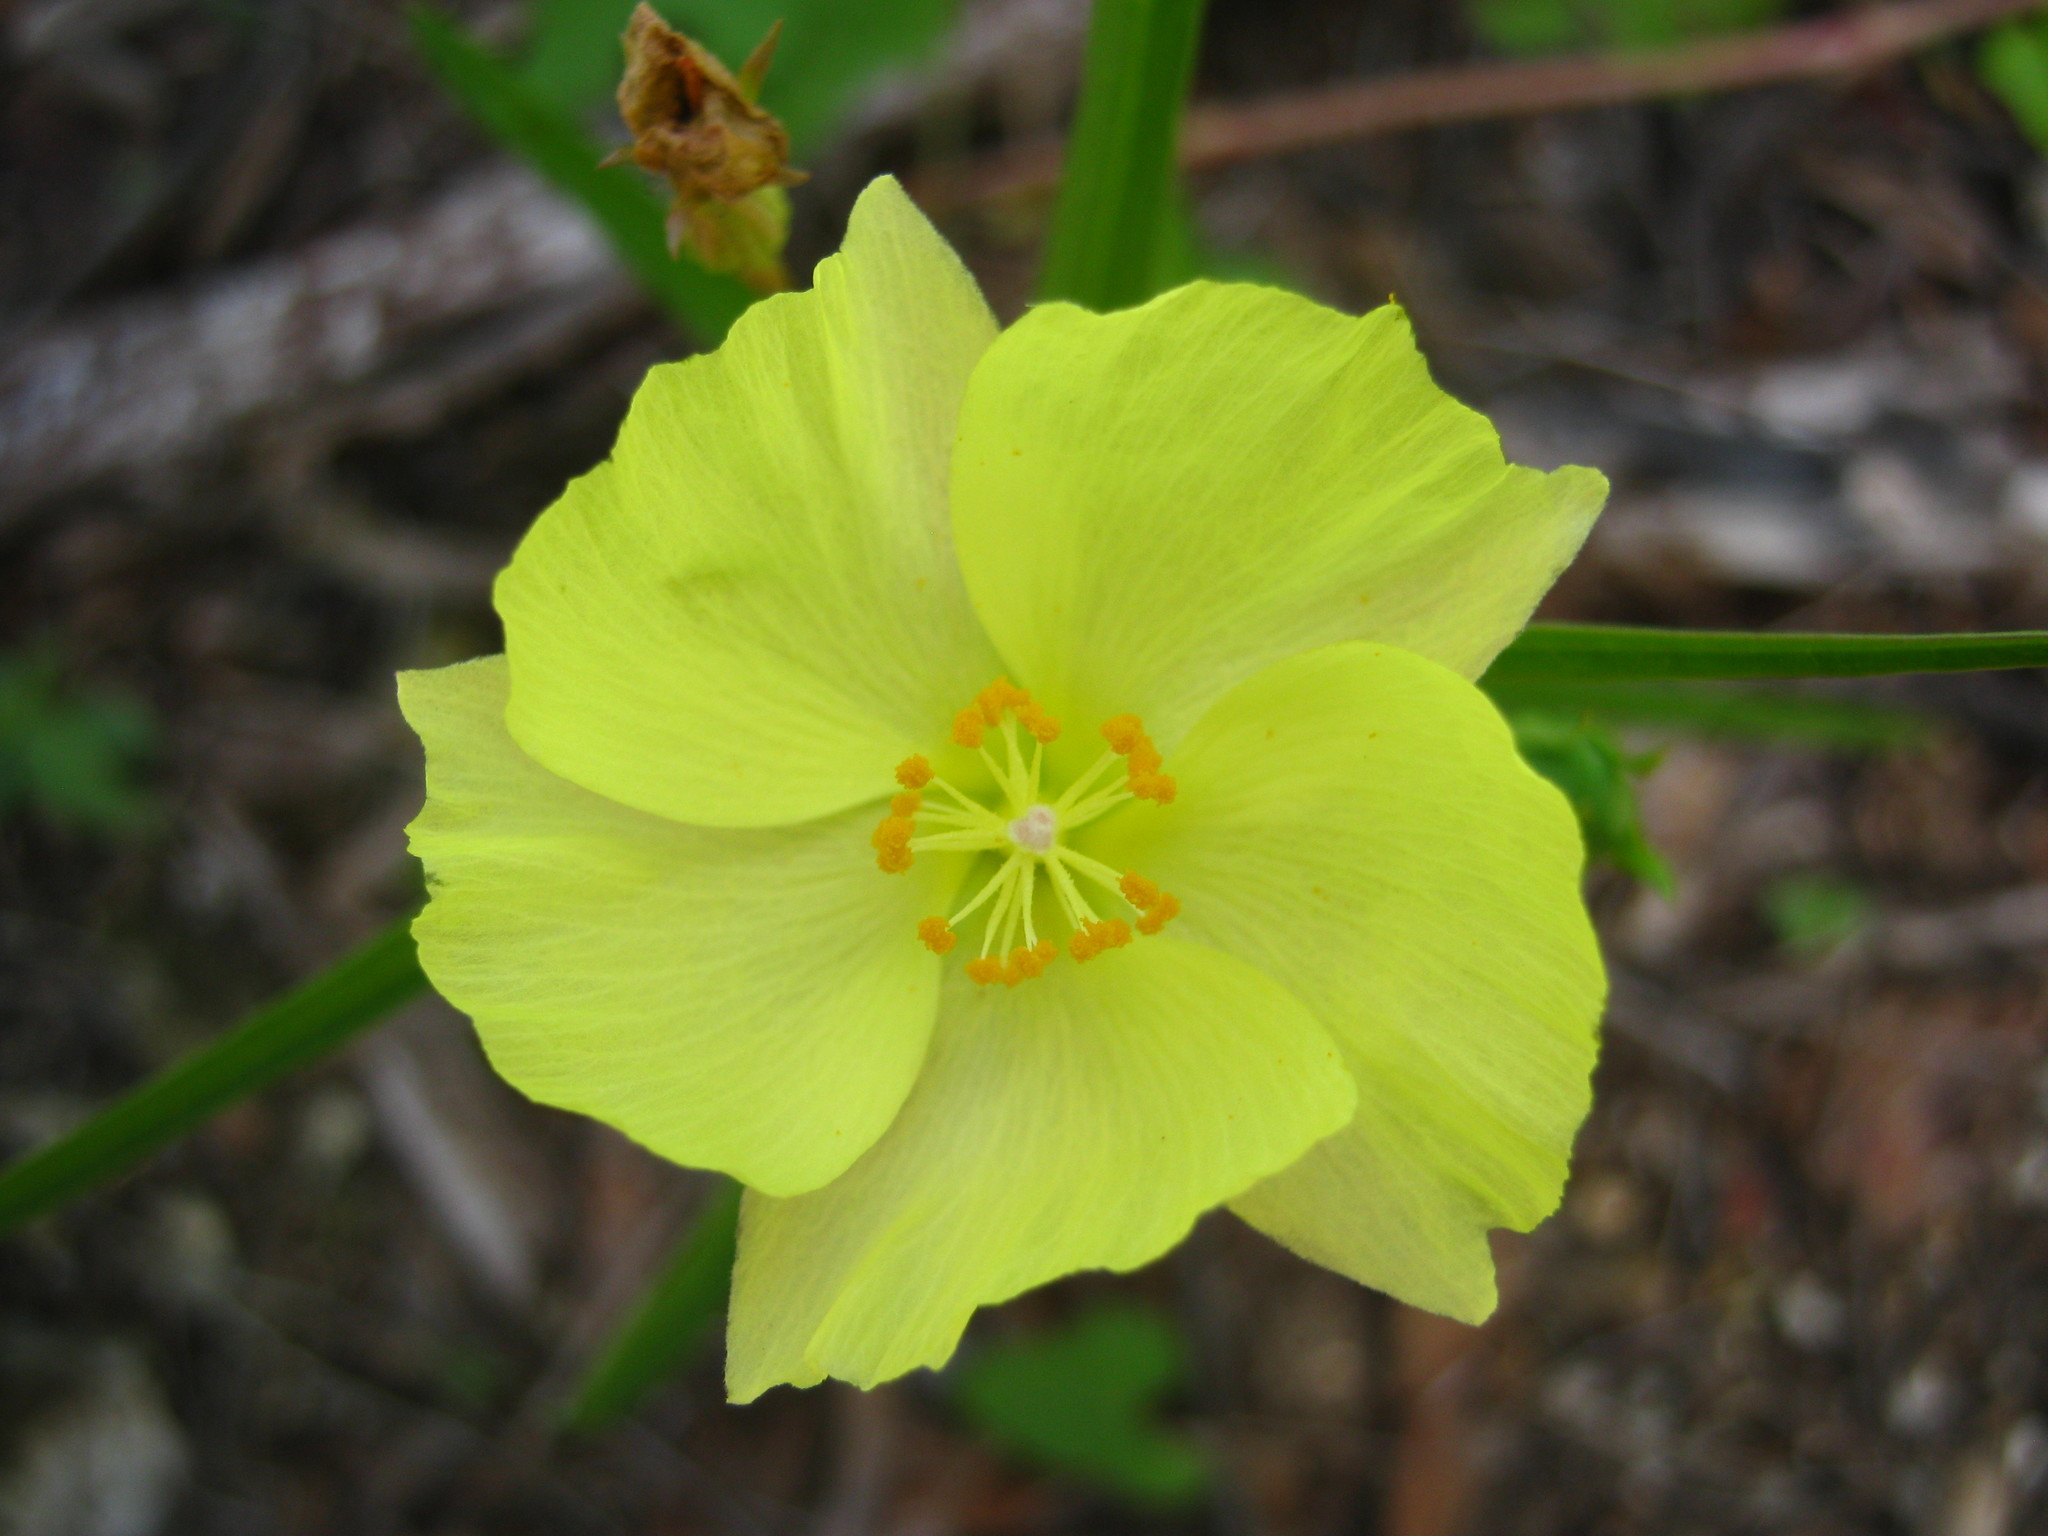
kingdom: Plantae
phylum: Tracheophyta
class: Magnoliopsida
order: Malvales
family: Malvaceae
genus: Cienfuegosia
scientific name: Cienfuegosia yucatanensis
